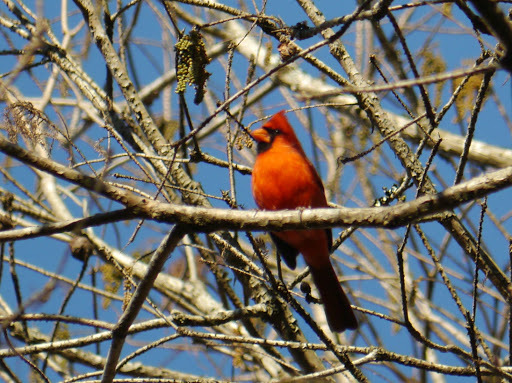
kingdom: Animalia
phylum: Chordata
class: Aves
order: Passeriformes
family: Cardinalidae
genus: Cardinalis
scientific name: Cardinalis cardinalis
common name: Northern cardinal
